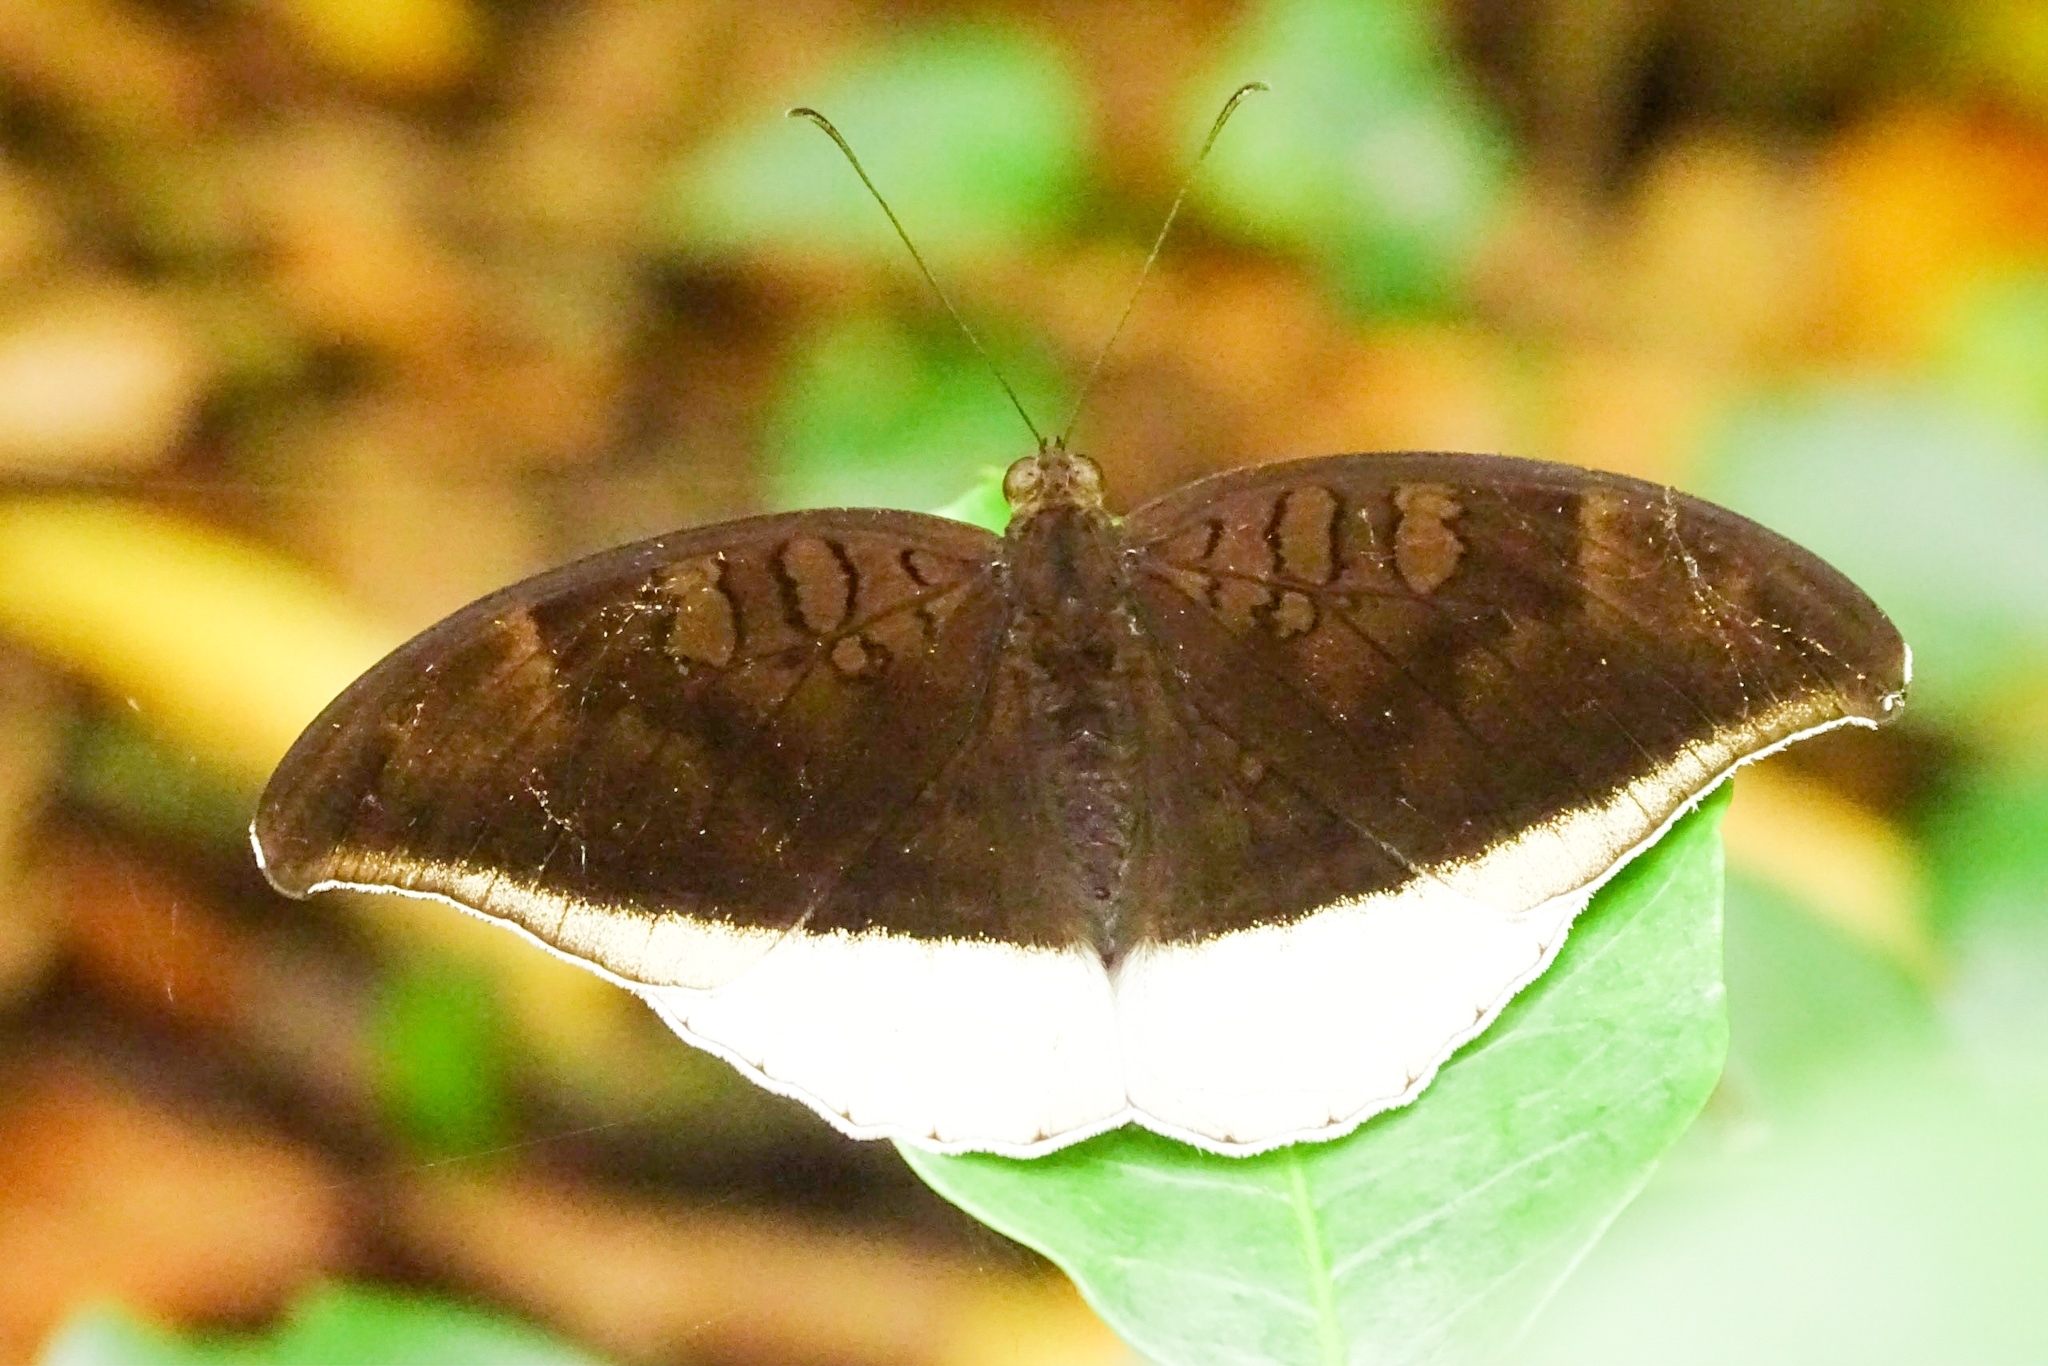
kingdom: Animalia
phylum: Arthropoda
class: Insecta
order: Lepidoptera
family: Nymphalidae
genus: Tanaecia
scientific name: Tanaecia lepidea
